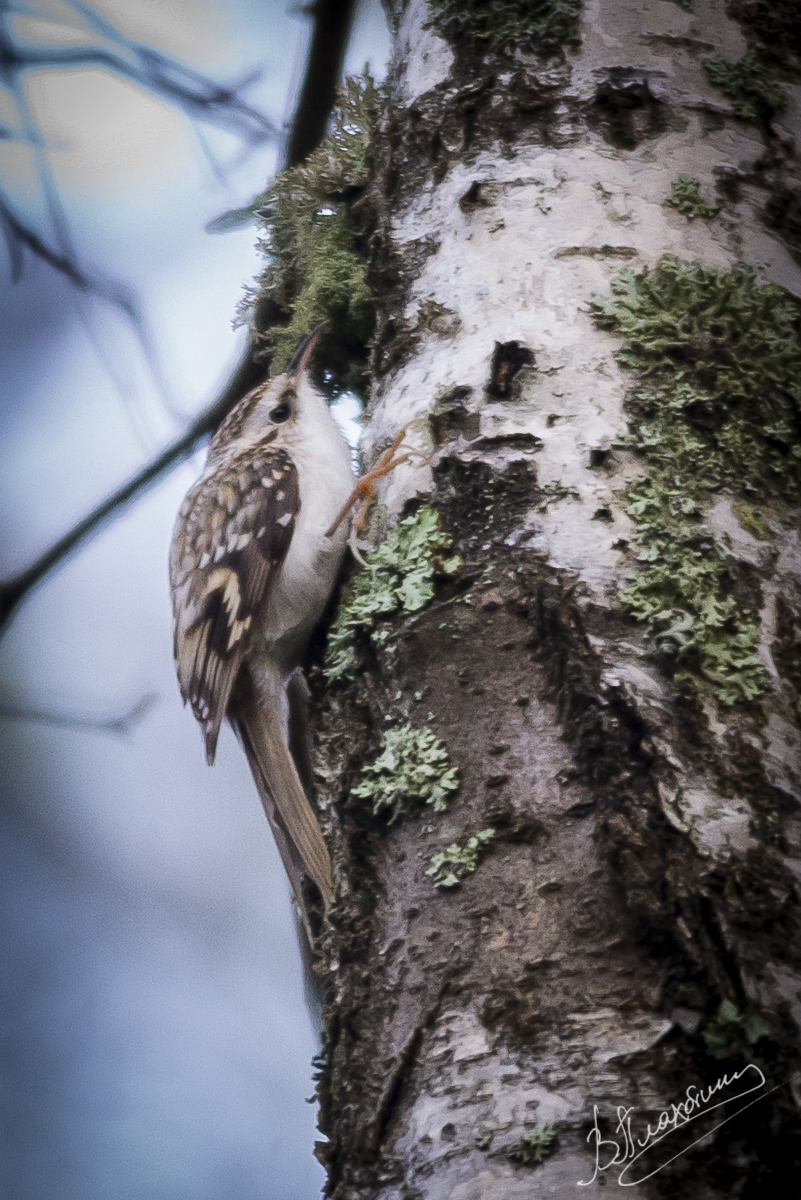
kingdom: Animalia
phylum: Chordata
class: Aves
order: Passeriformes
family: Certhiidae
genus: Certhia
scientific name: Certhia familiaris
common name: Eurasian treecreeper
